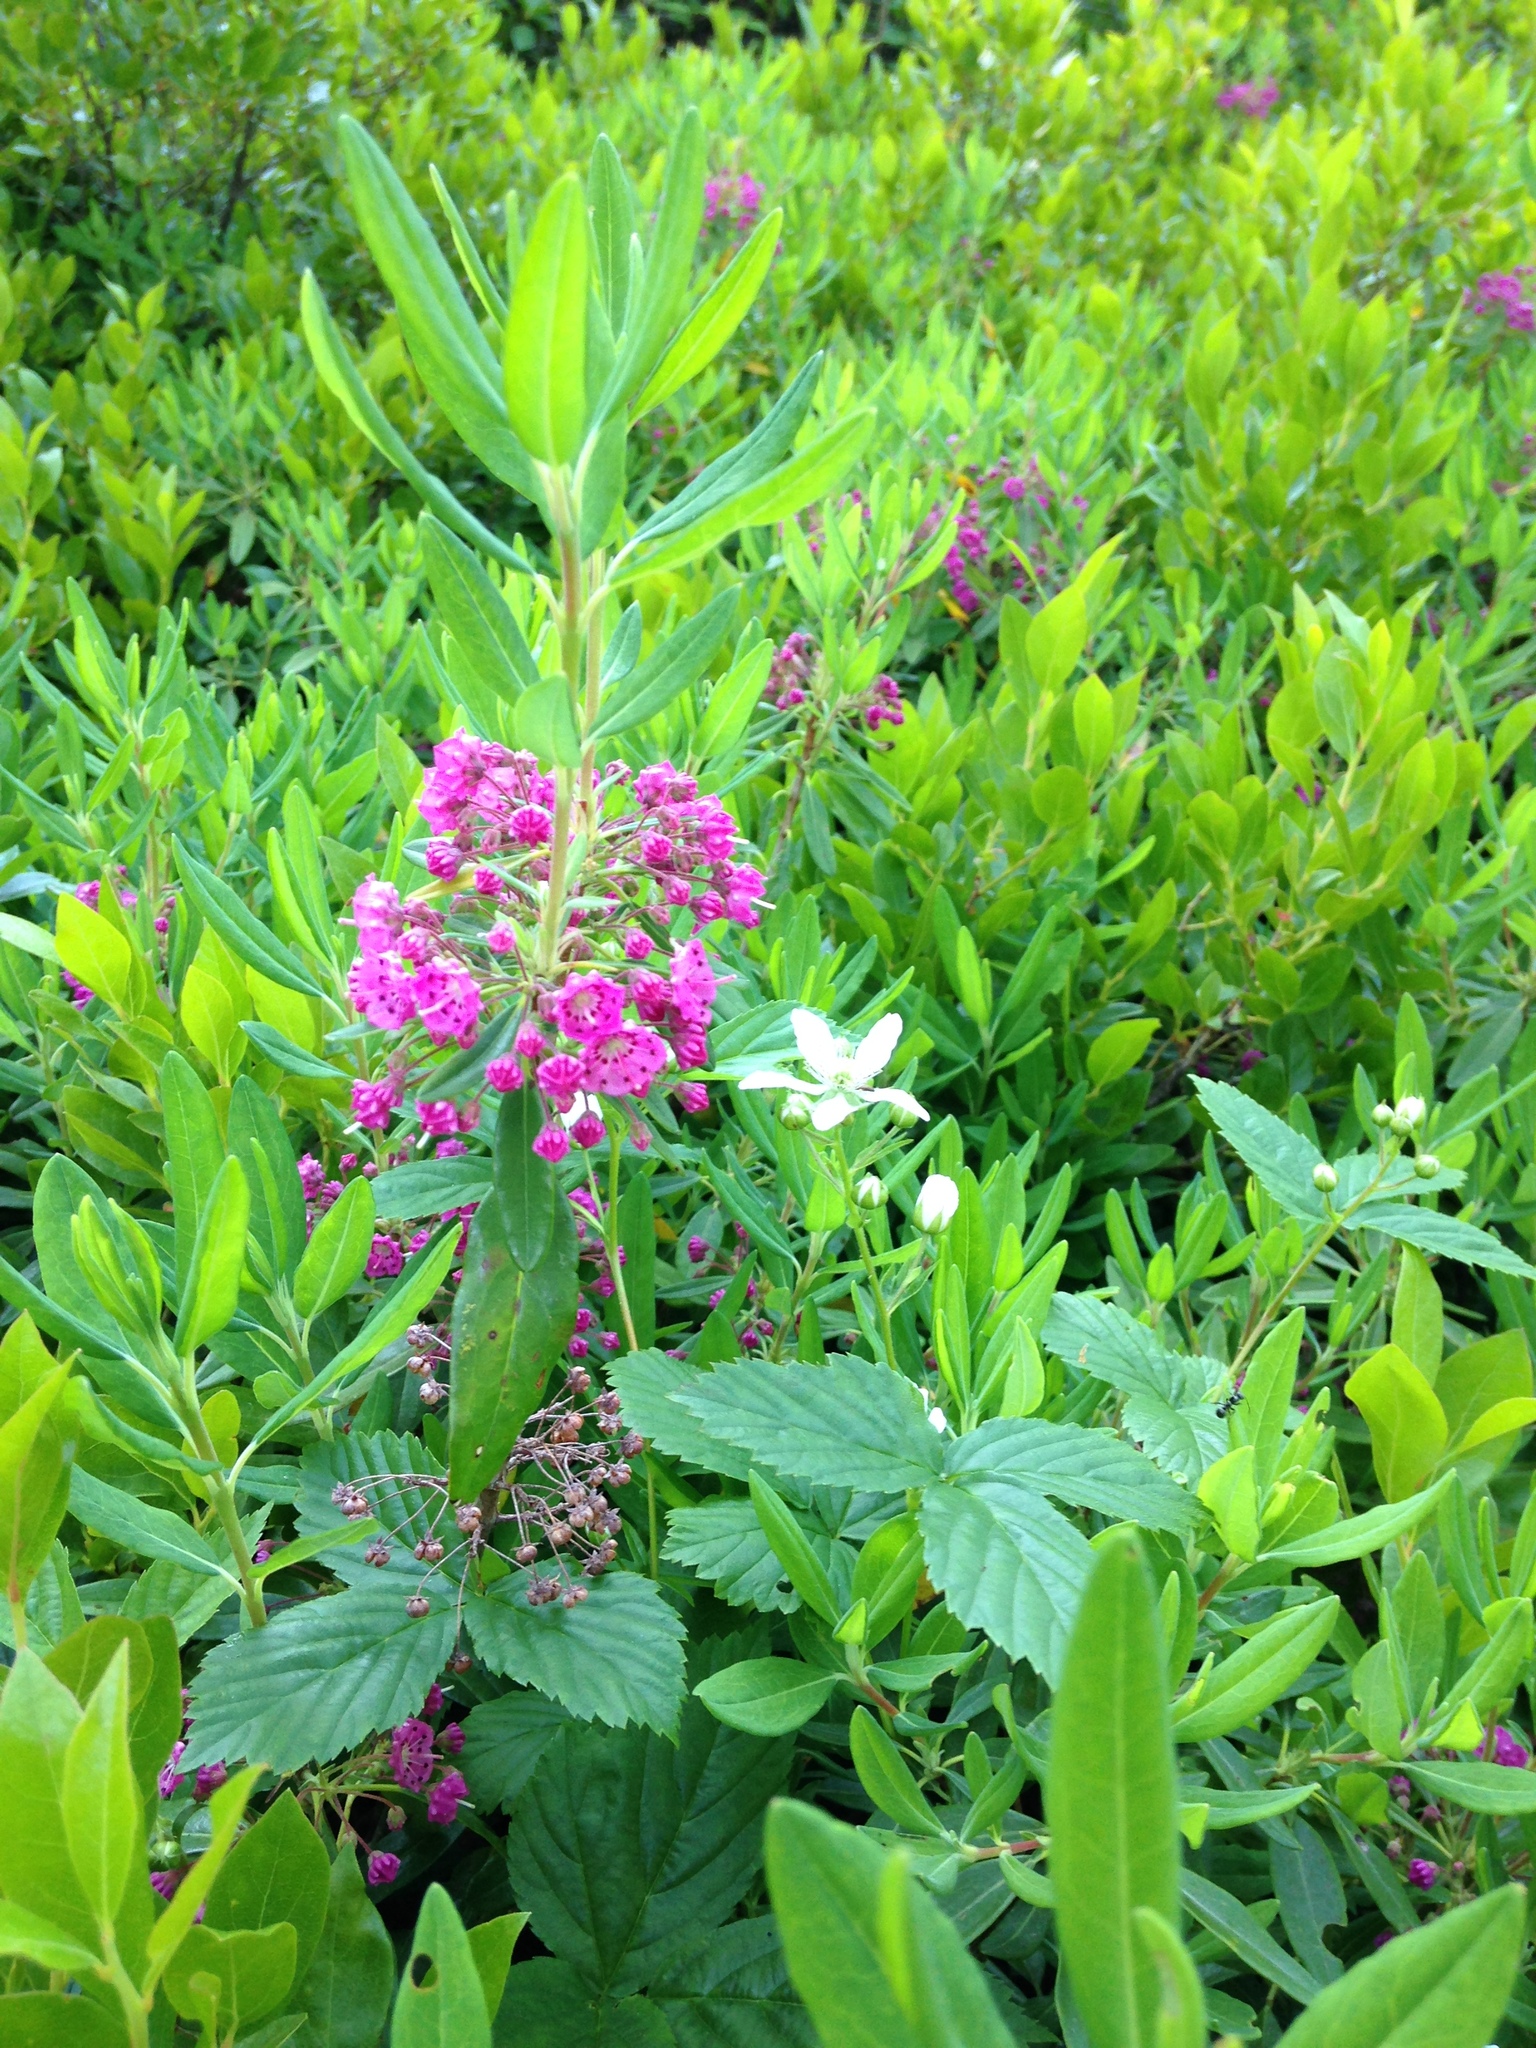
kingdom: Plantae
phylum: Tracheophyta
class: Magnoliopsida
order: Ericales
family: Ericaceae
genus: Kalmia
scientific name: Kalmia angustifolia
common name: Sheep-laurel
